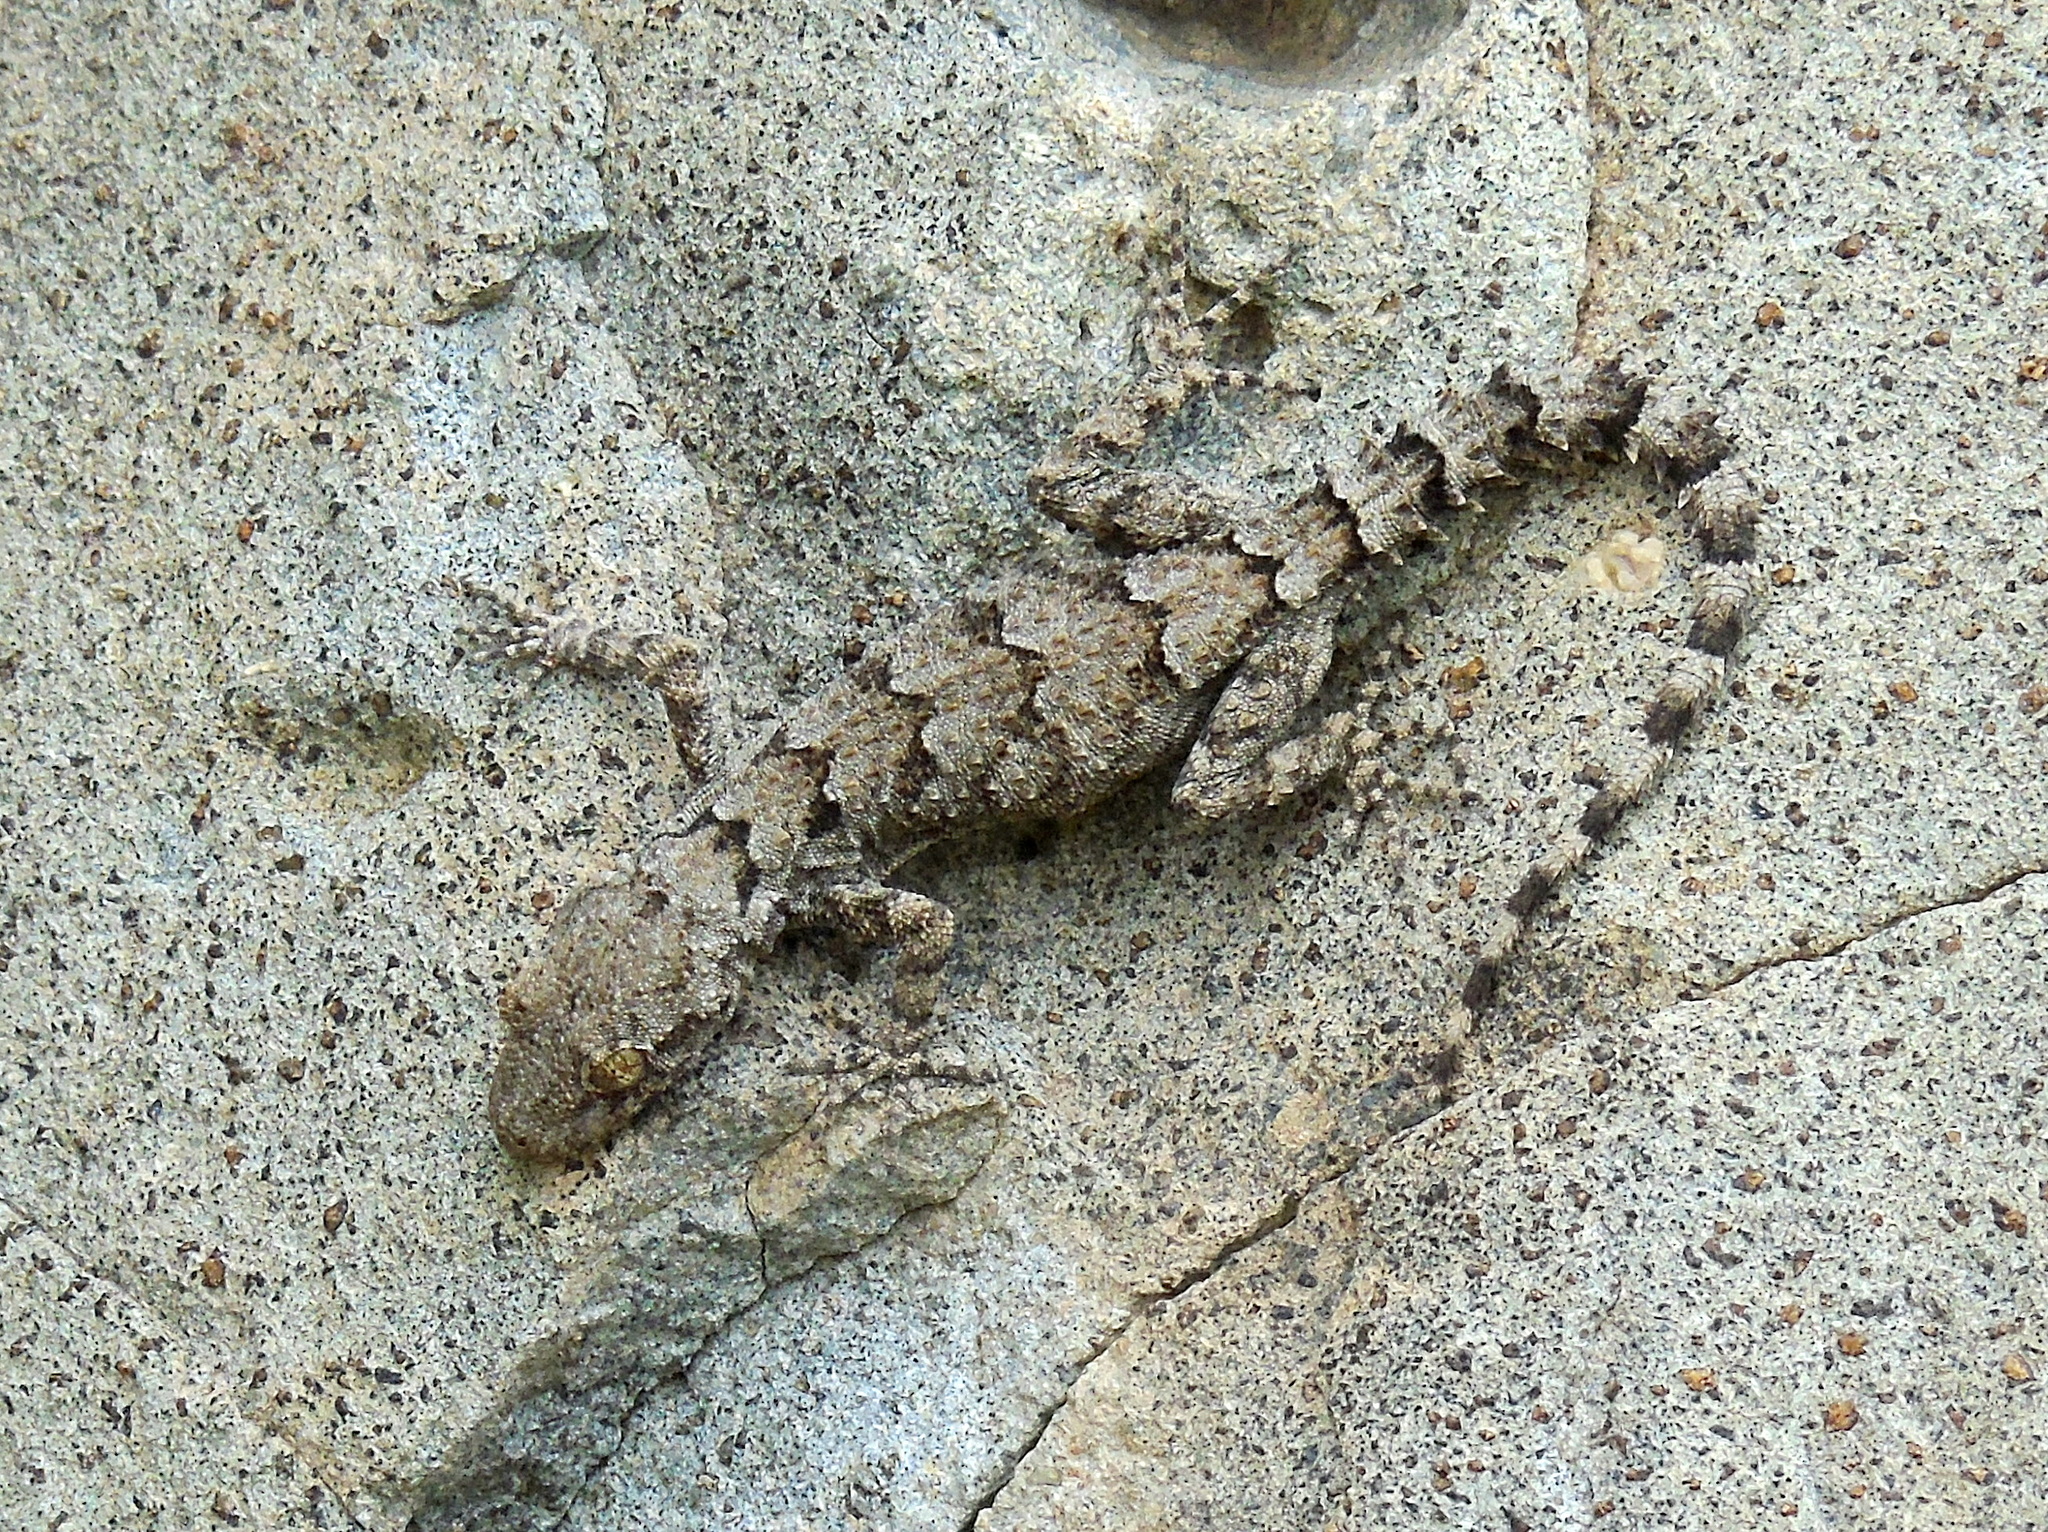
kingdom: Animalia
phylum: Chordata
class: Squamata
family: Gekkonidae
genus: Mediodactylus
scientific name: Mediodactylus heterocercus
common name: Asia minor thin-toed gecko
